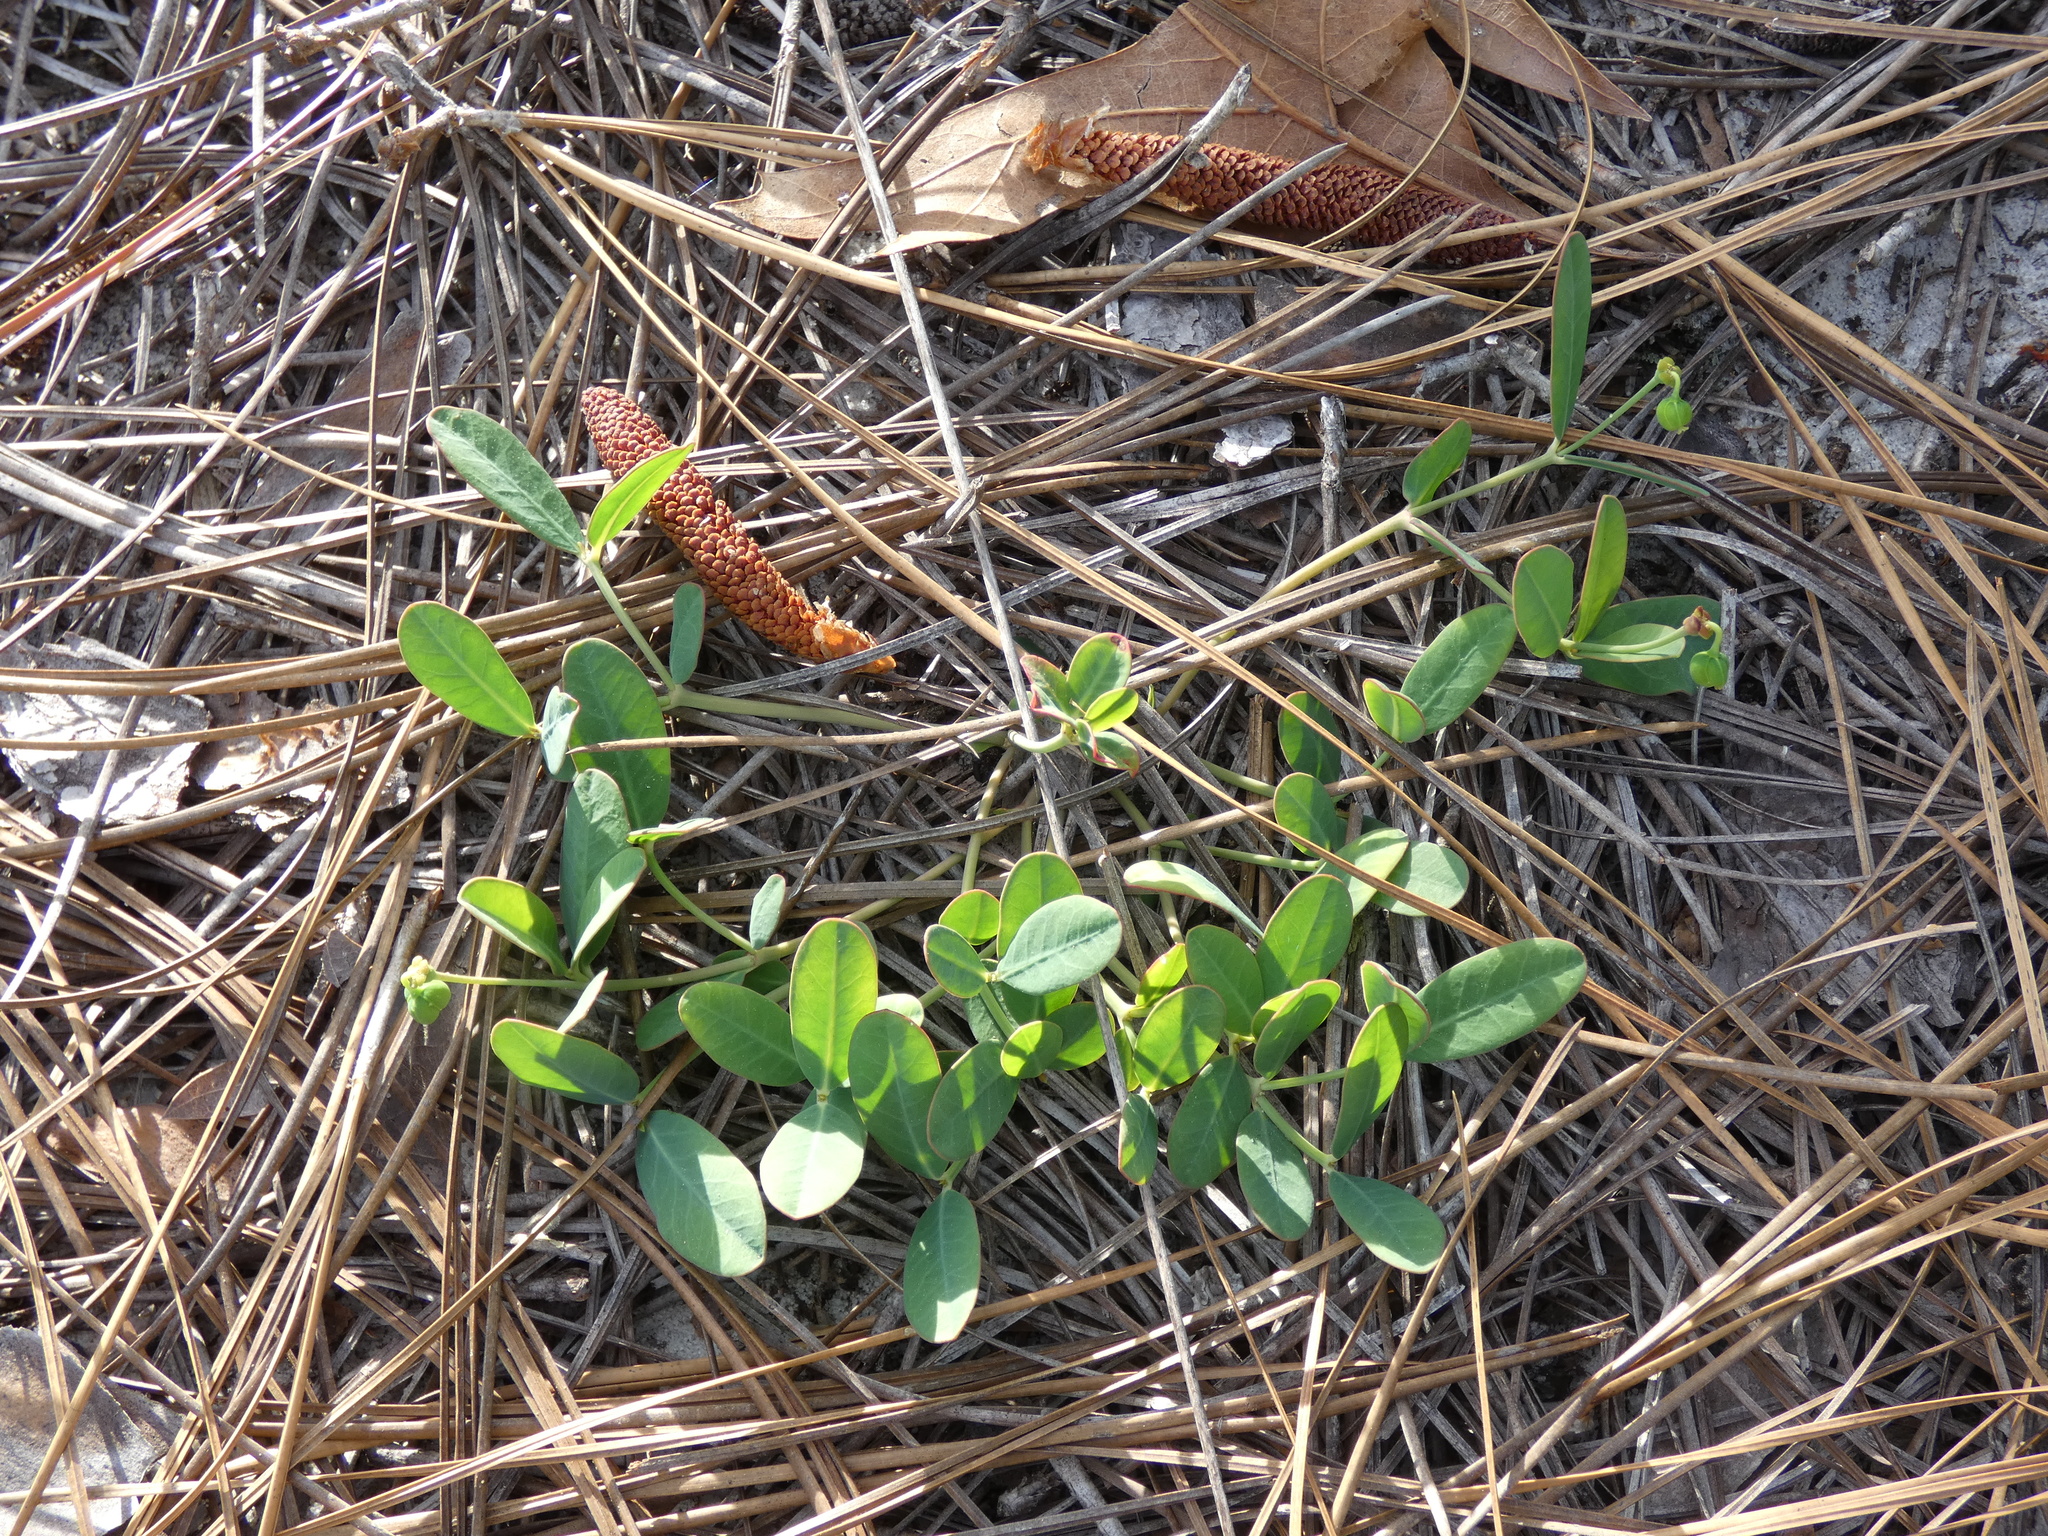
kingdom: Plantae
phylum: Tracheophyta
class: Magnoliopsida
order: Malpighiales
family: Euphorbiaceae
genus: Euphorbia
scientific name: Euphorbia ipecacuanhae
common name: Carolina ipecac
